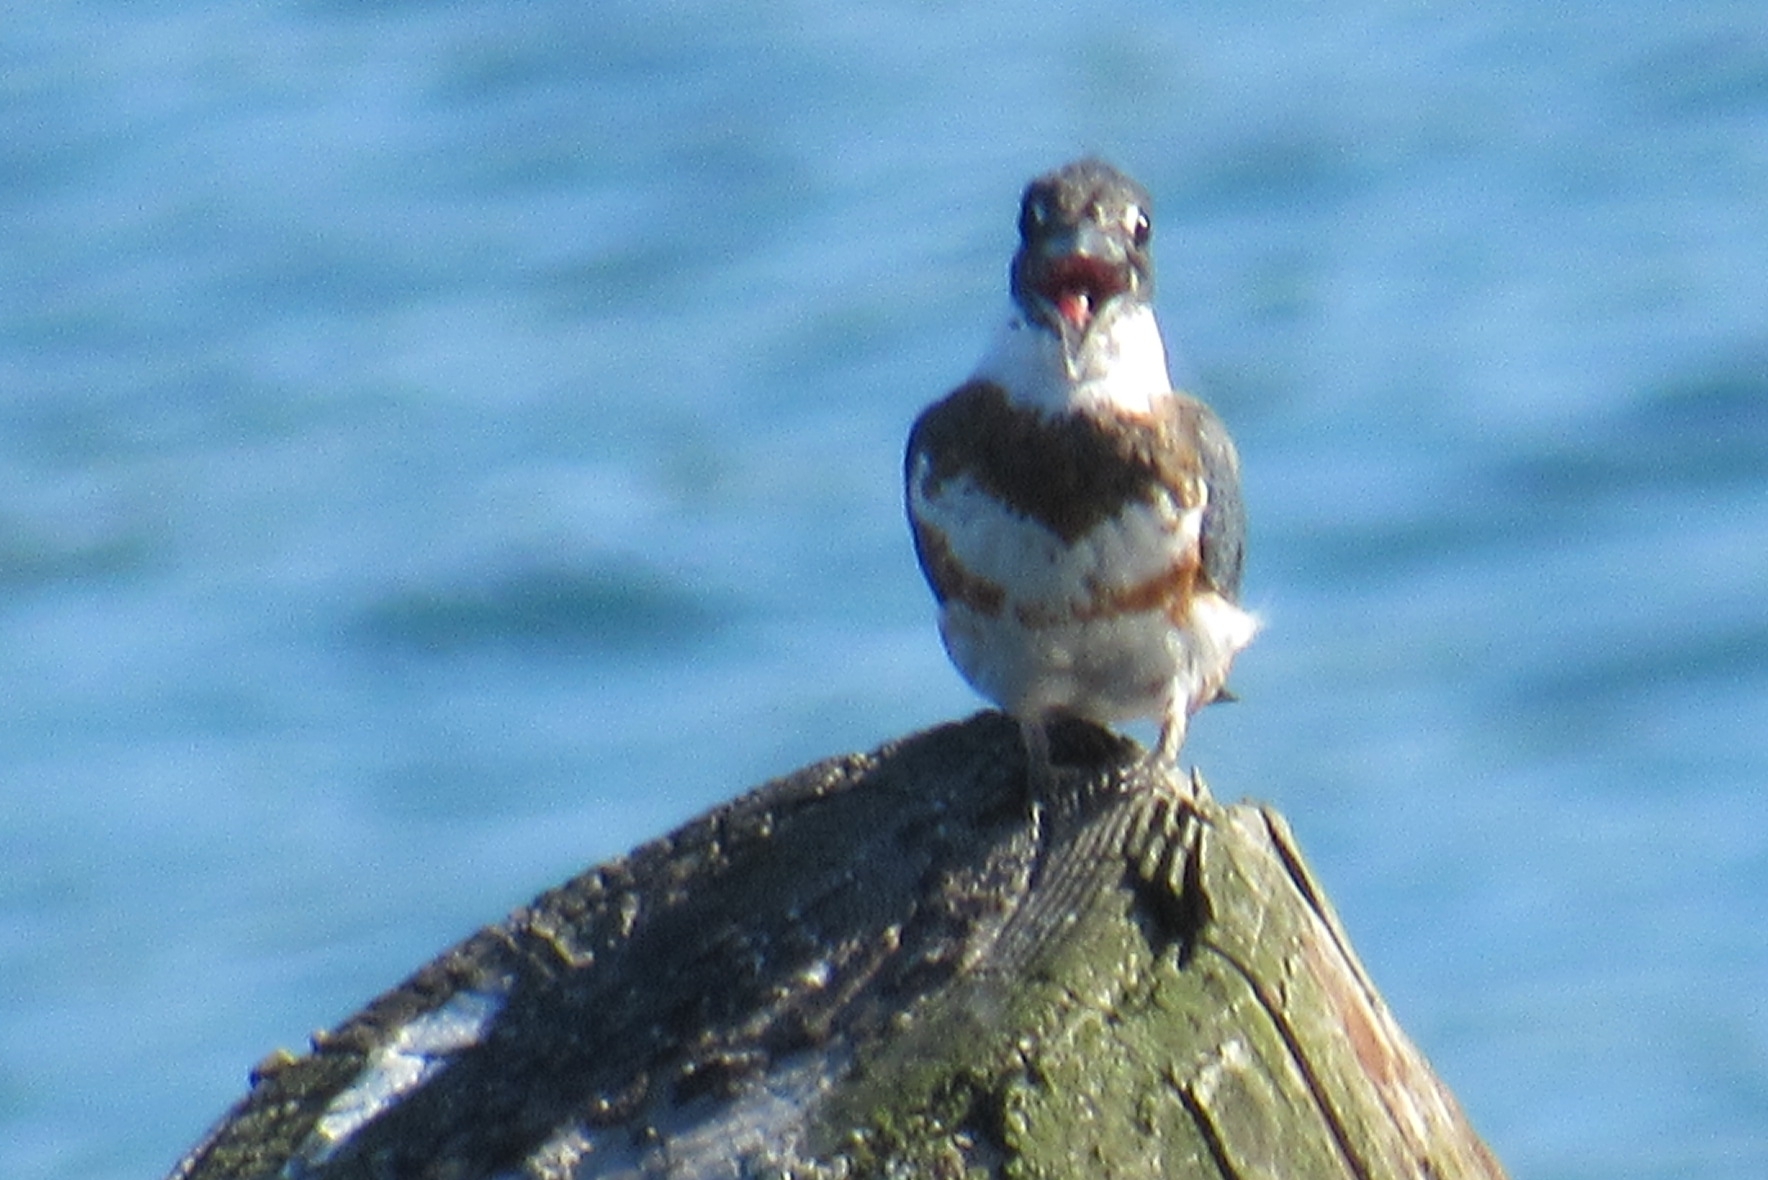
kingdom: Animalia
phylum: Chordata
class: Aves
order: Coraciiformes
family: Alcedinidae
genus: Megaceryle
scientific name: Megaceryle alcyon
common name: Belted kingfisher
